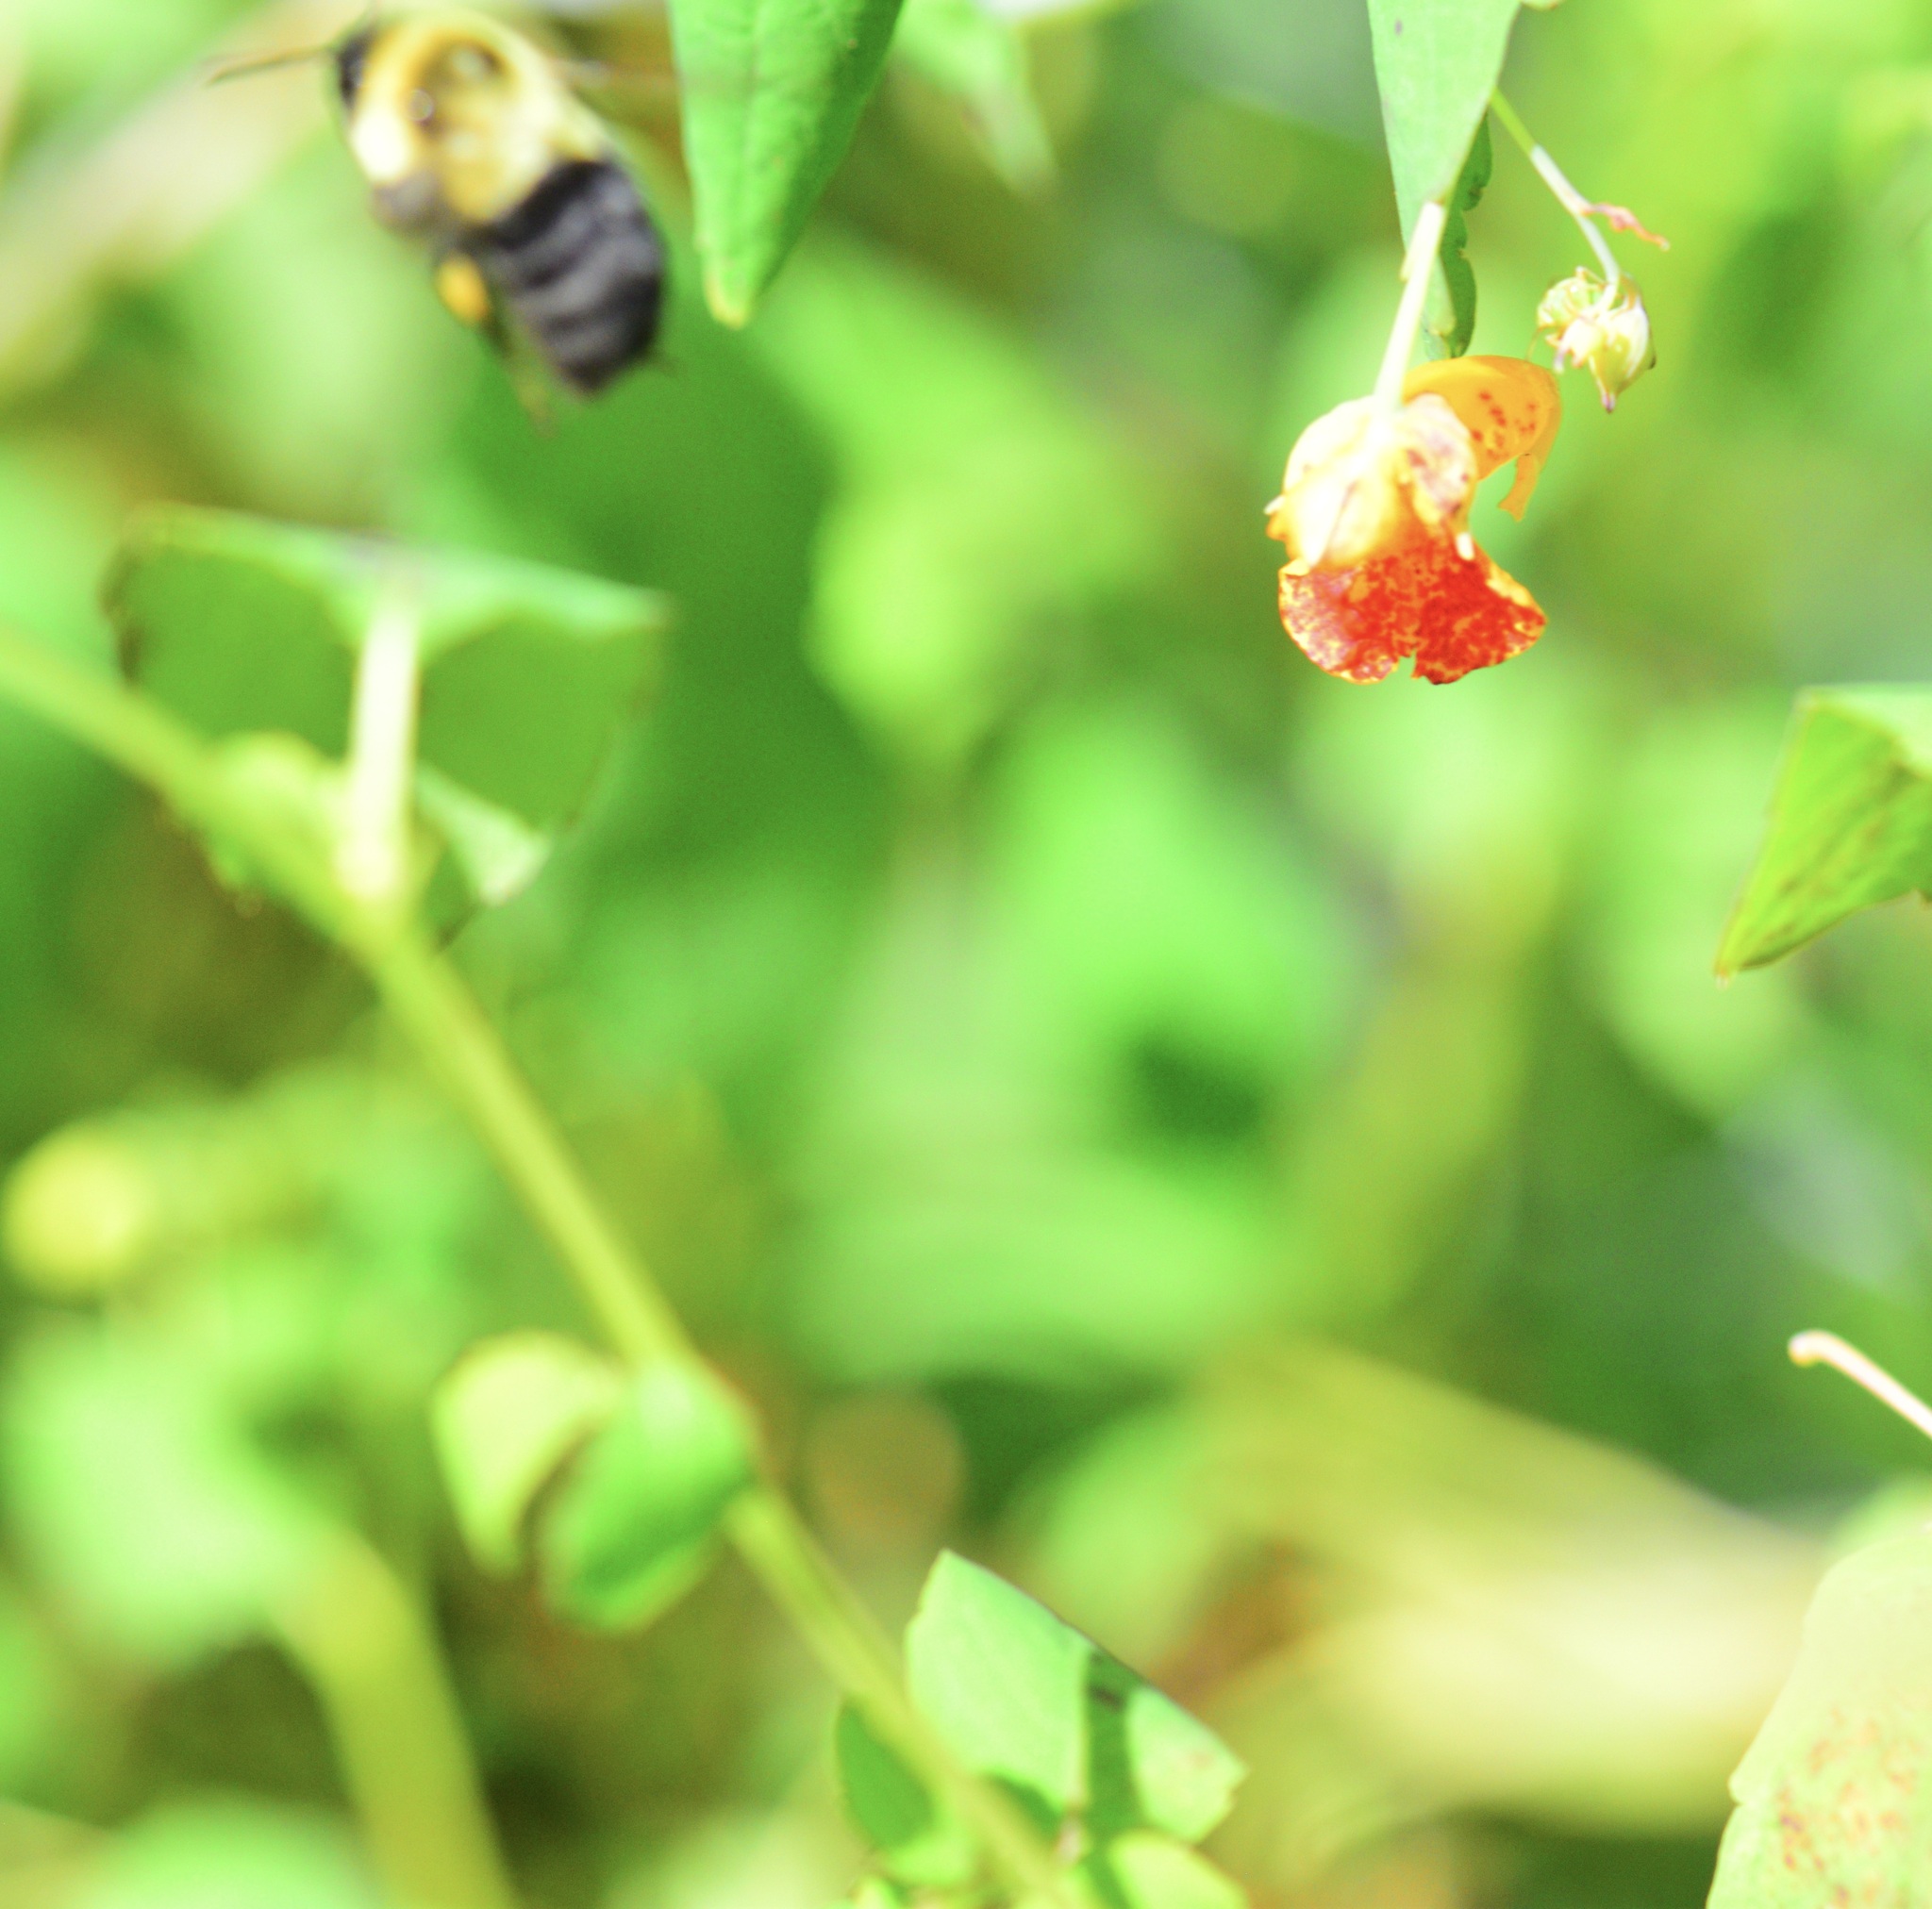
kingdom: Animalia
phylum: Arthropoda
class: Insecta
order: Hymenoptera
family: Apidae
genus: Bombus
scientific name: Bombus impatiens
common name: Common eastern bumble bee
